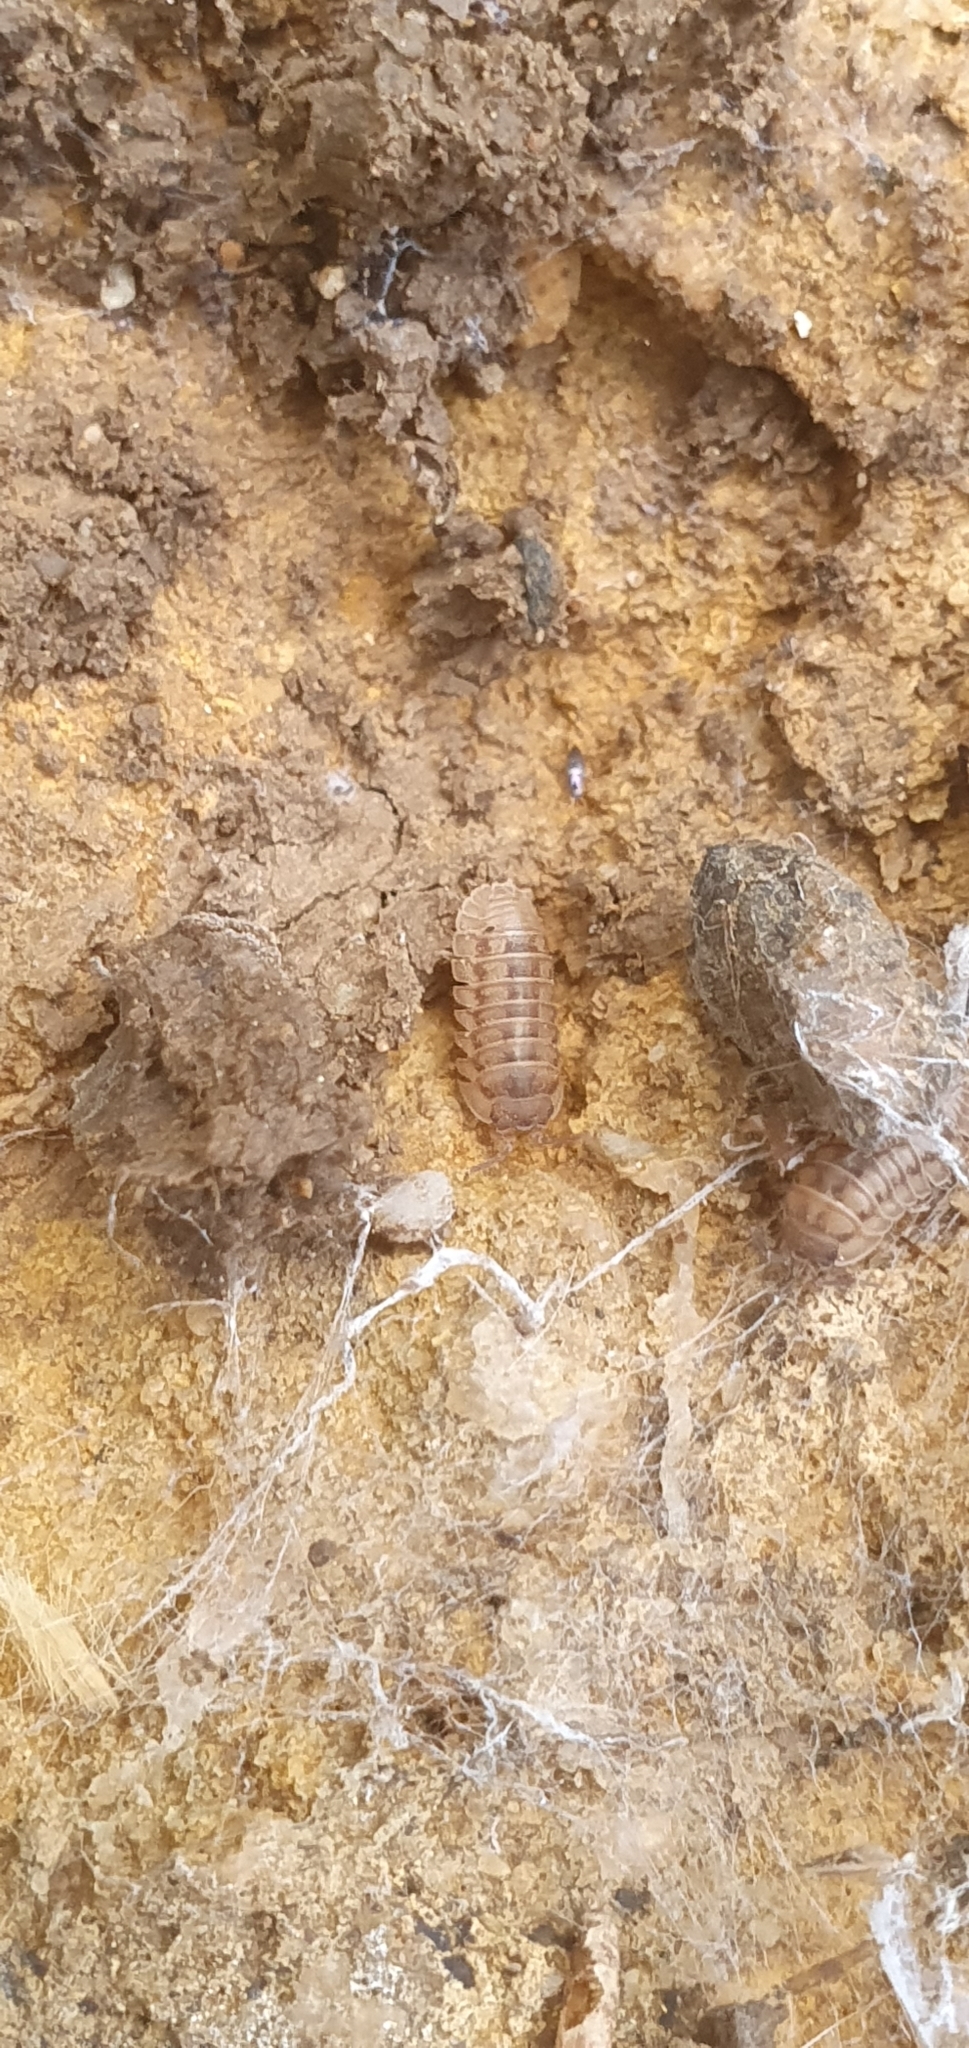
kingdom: Animalia
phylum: Arthropoda
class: Malacostraca
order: Isopoda
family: Armadillidiidae
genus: Armadillidium
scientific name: Armadillidium nasatum
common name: Isopod
